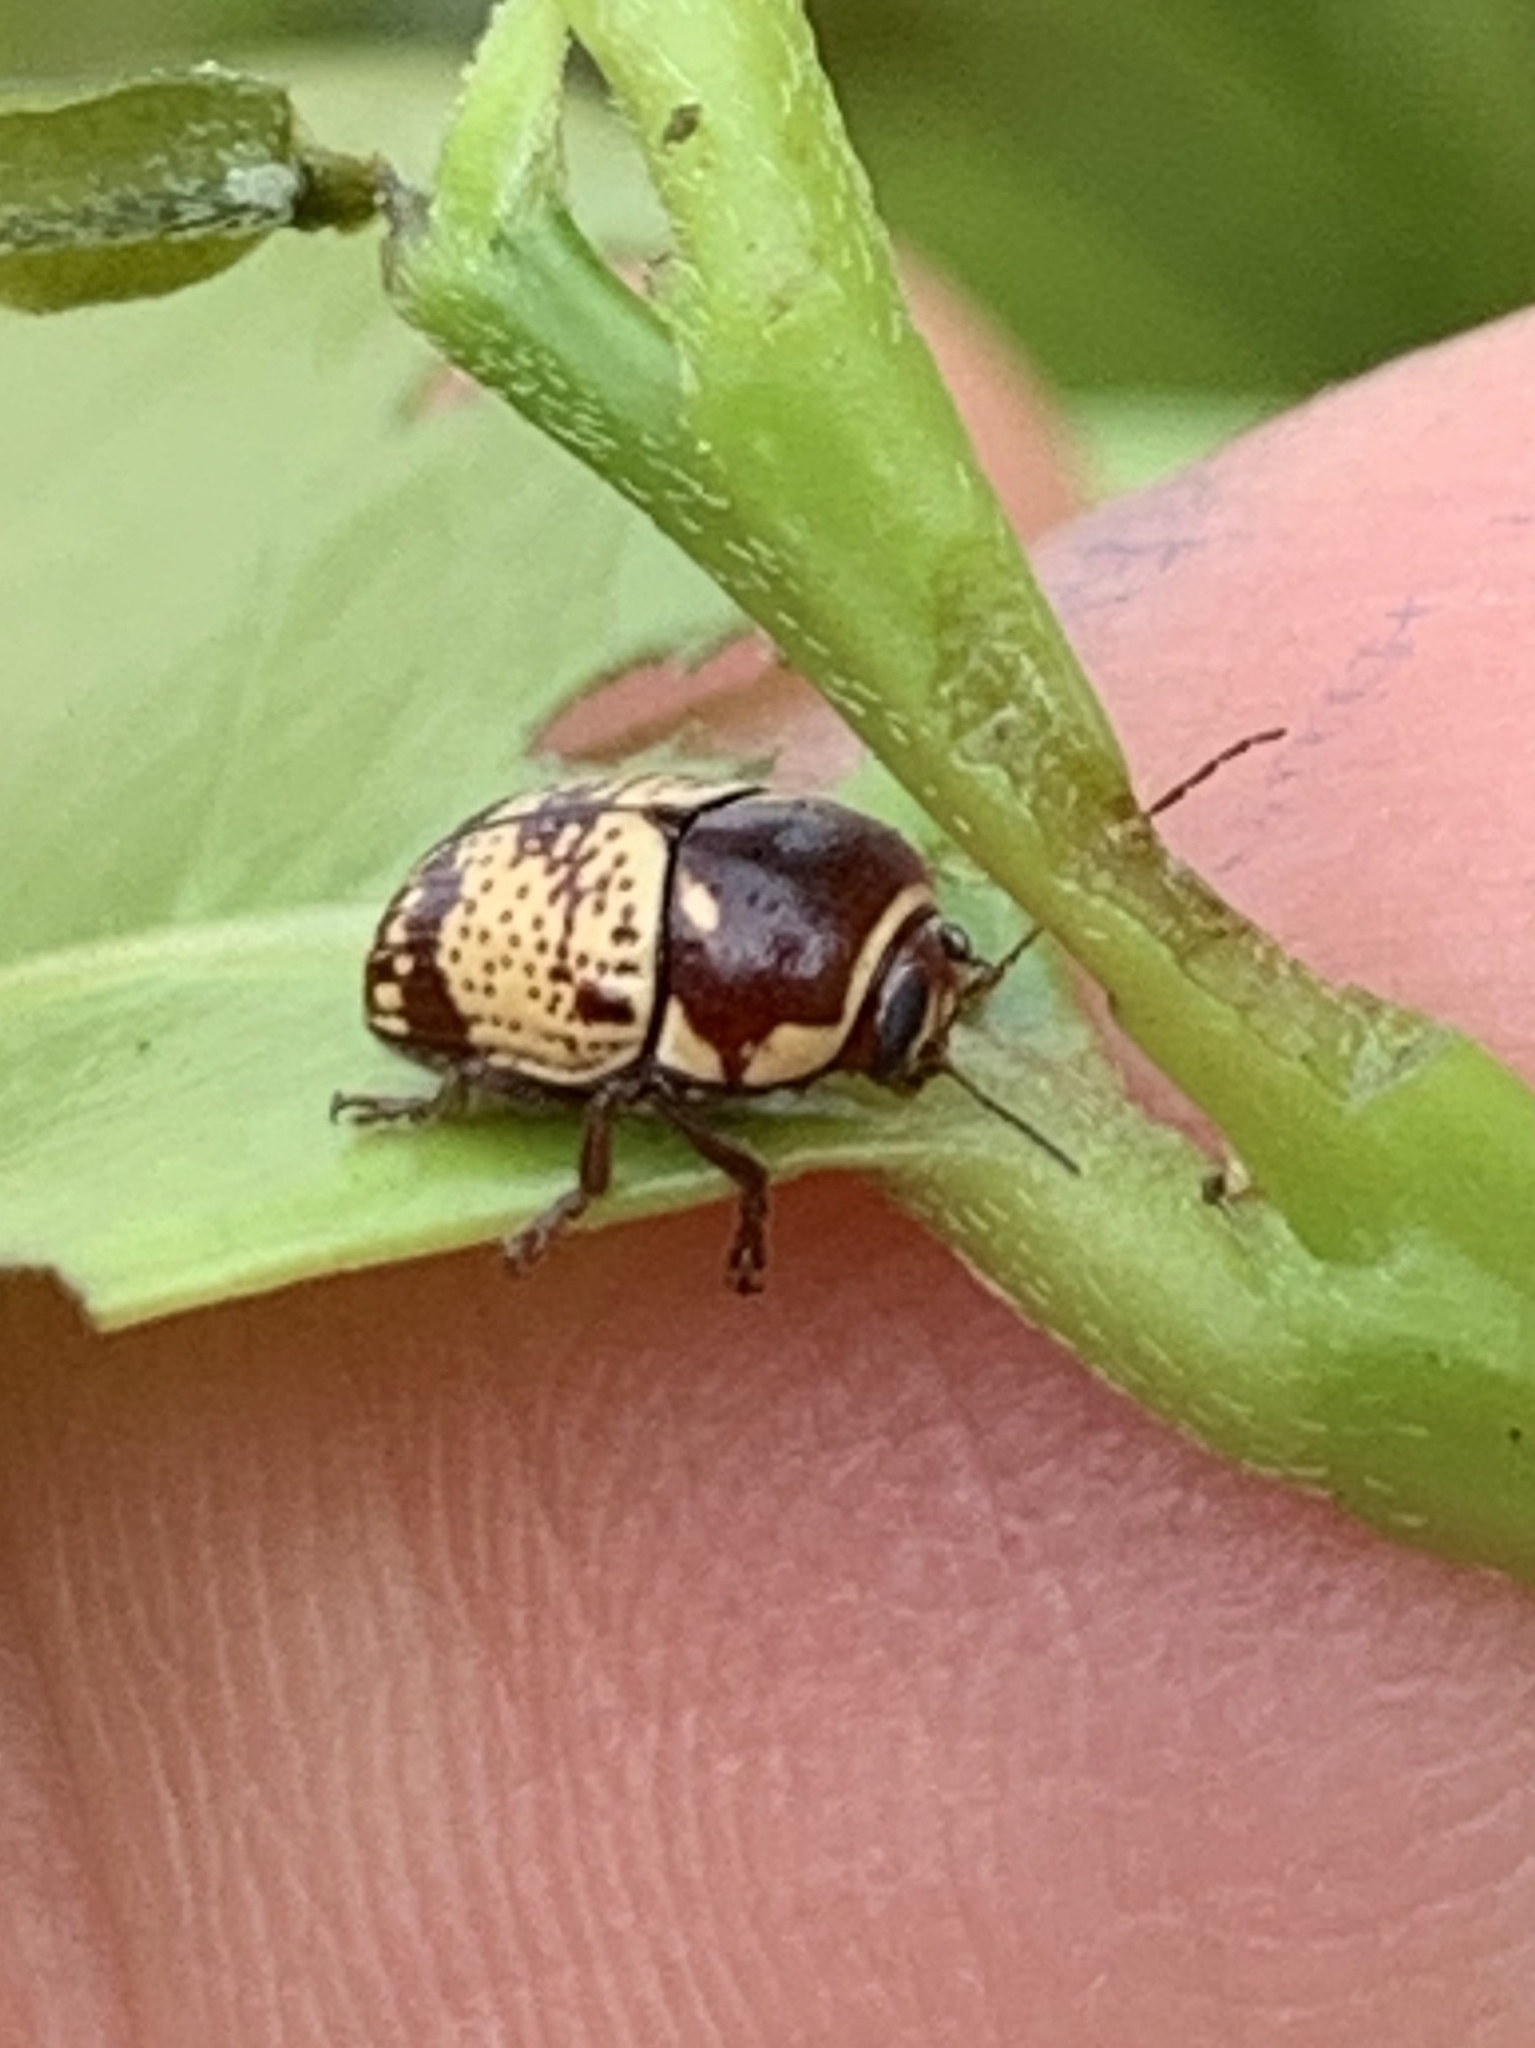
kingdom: Animalia
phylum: Arthropoda
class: Insecta
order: Coleoptera
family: Chrysomelidae
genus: Cryptocephalus
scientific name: Cryptocephalus irroratus
